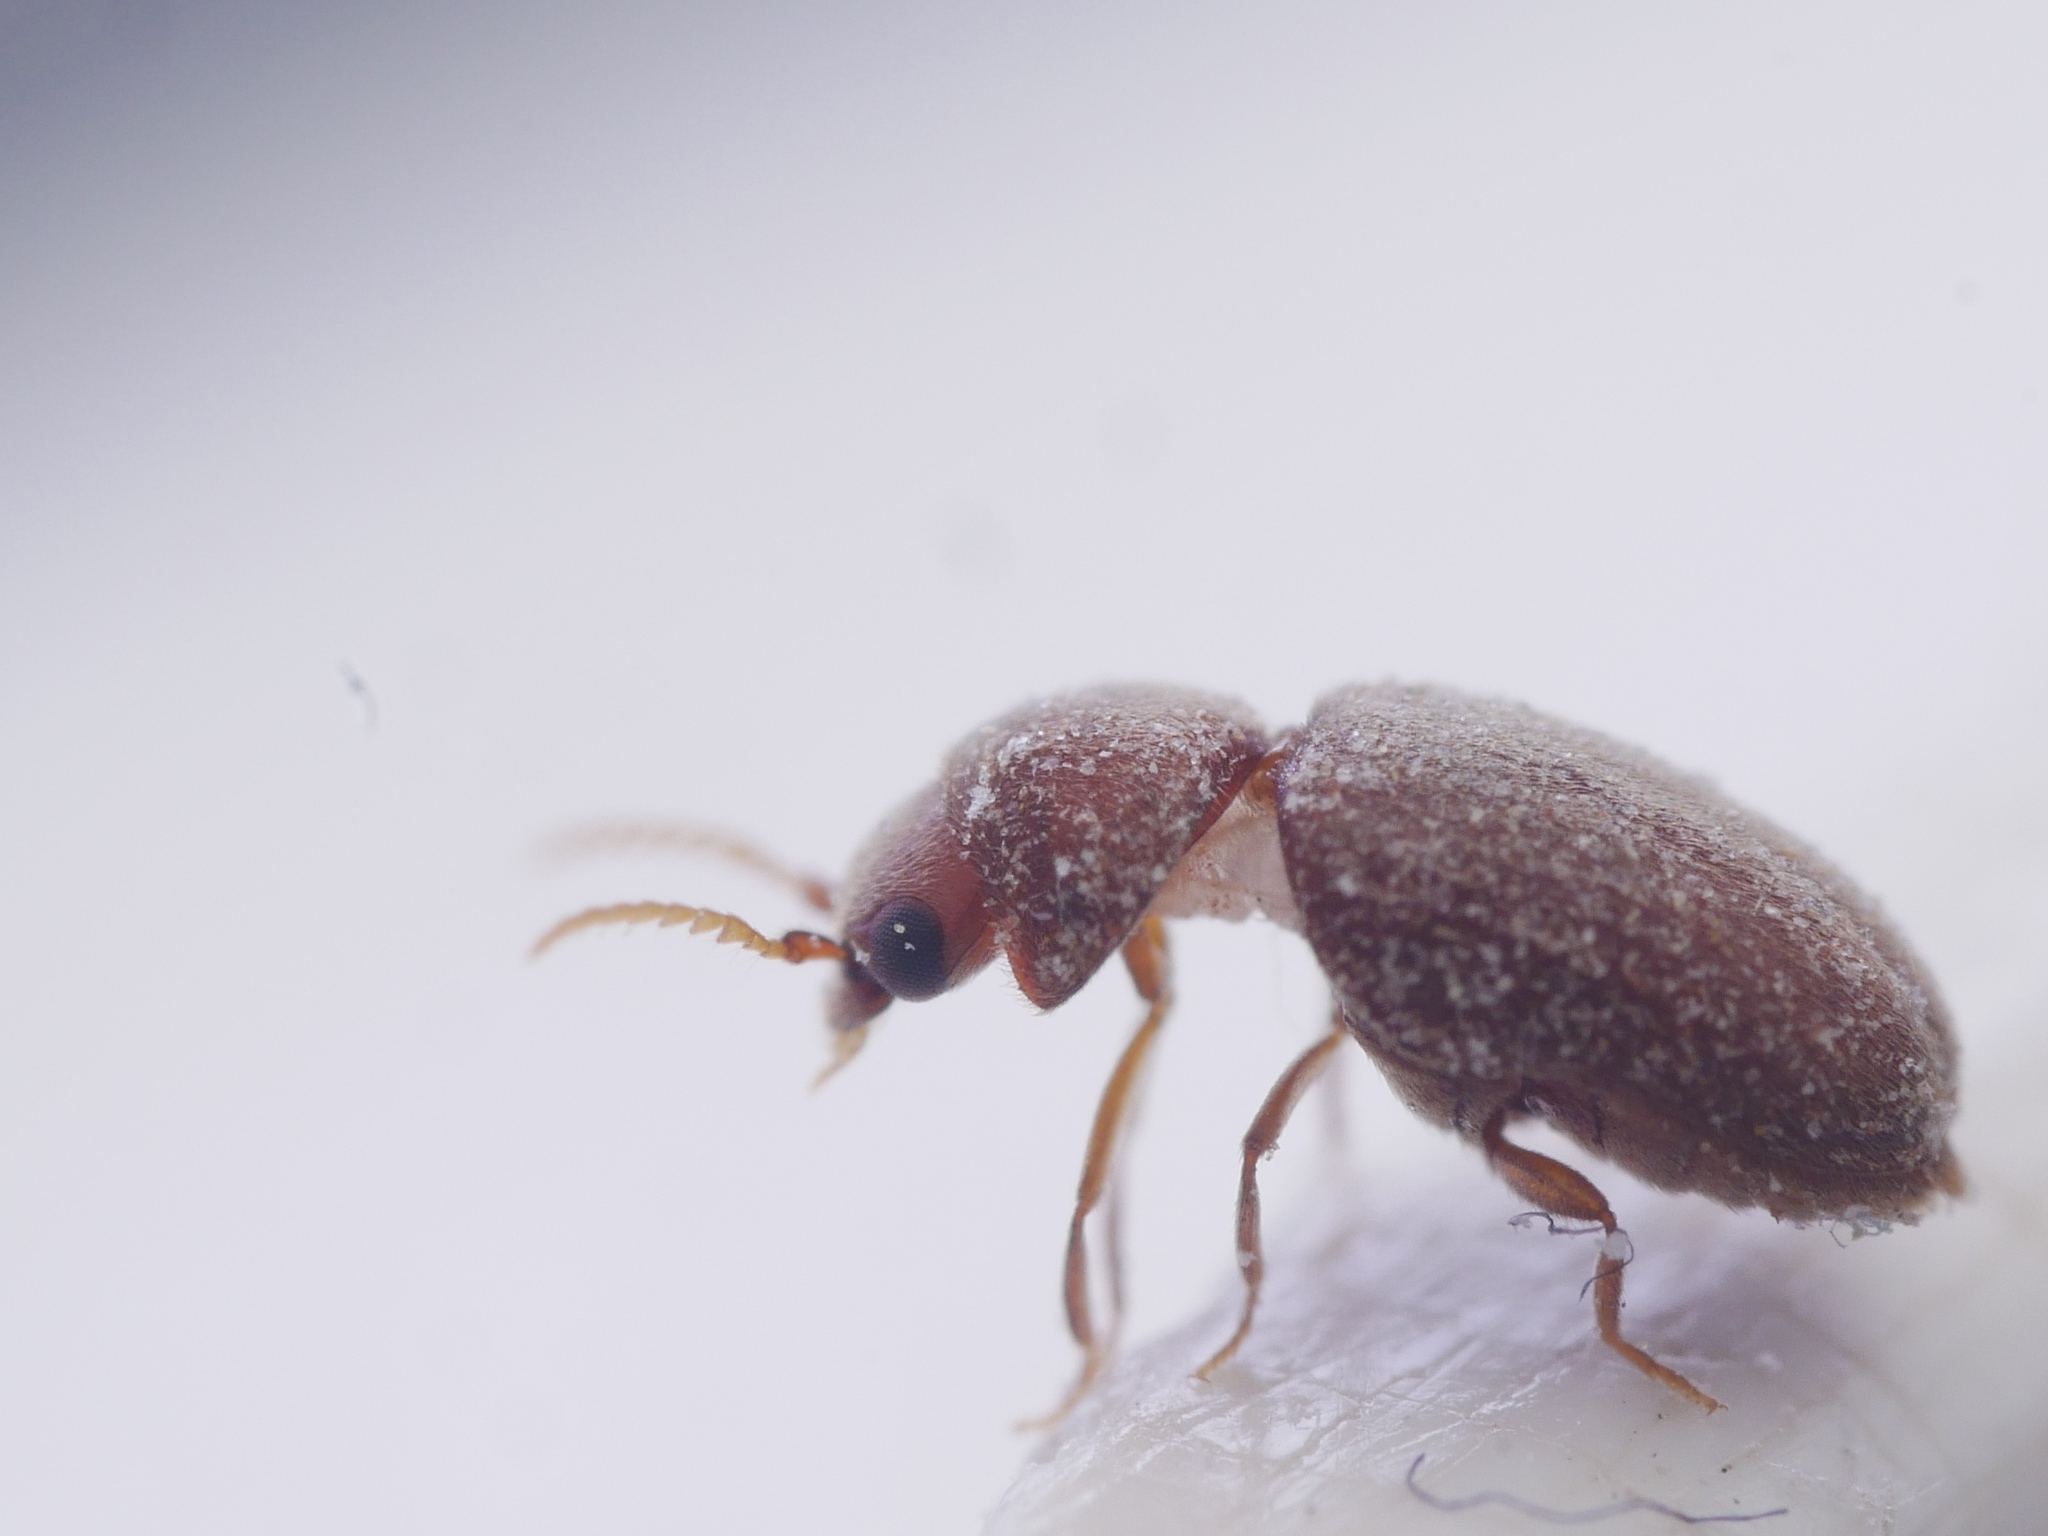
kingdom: Animalia
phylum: Arthropoda
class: Insecta
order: Coleoptera
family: Anobiidae
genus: Lasioderma
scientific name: Lasioderma serricorne
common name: Cigarette beetle
